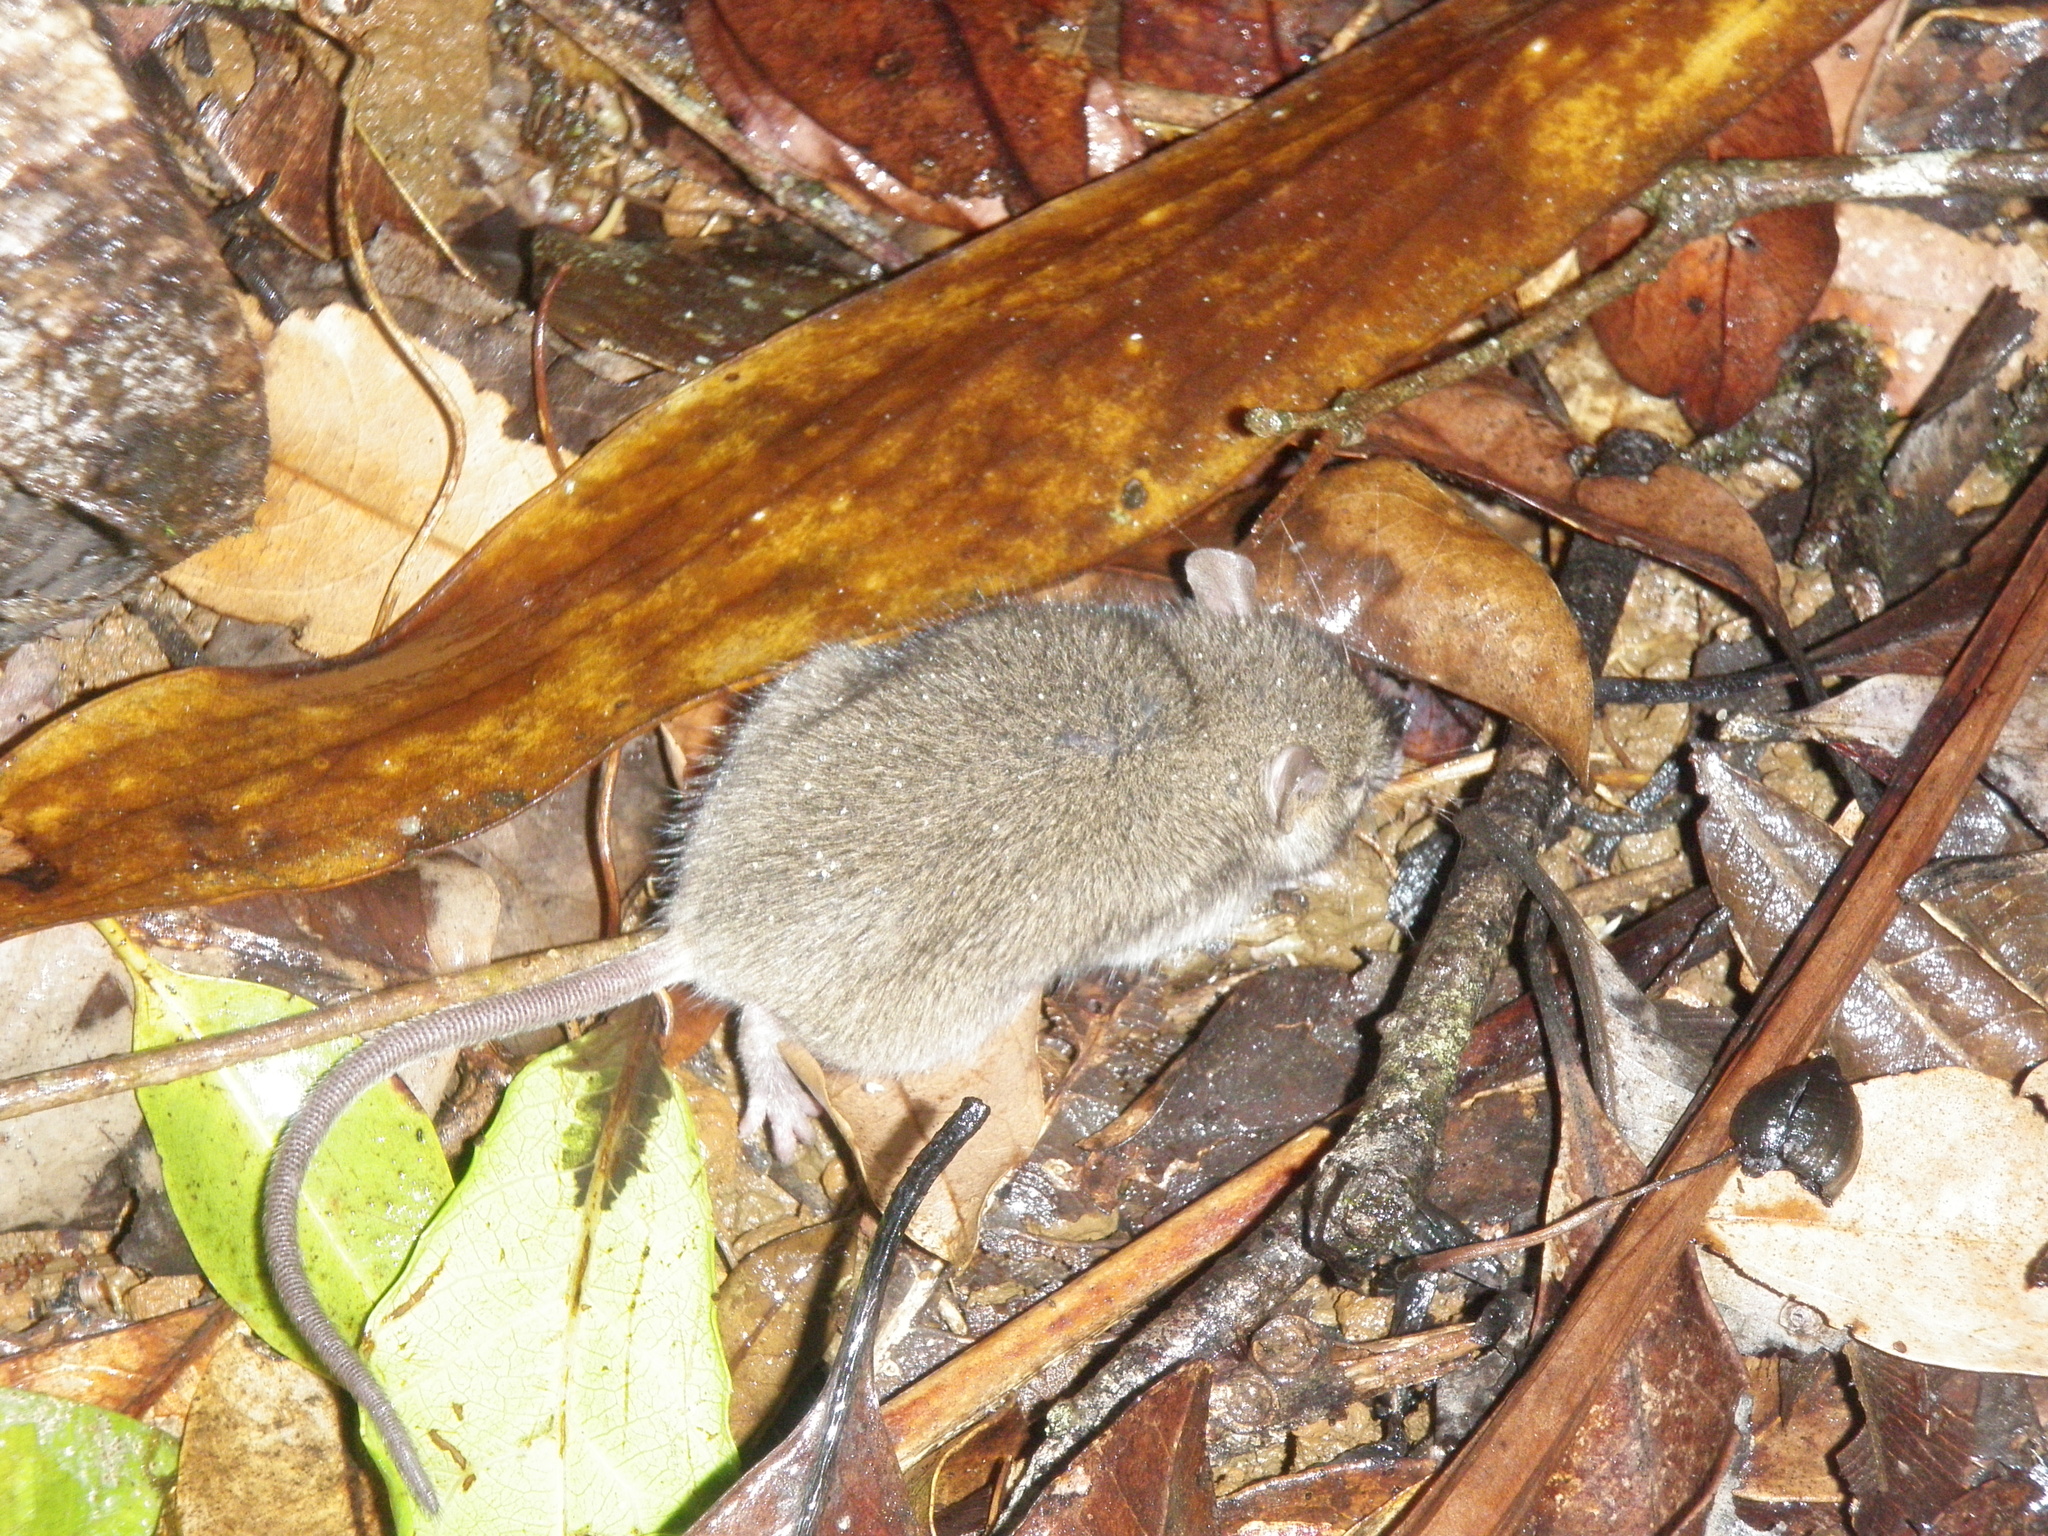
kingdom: Animalia
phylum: Chordata
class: Mammalia
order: Rodentia
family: Muridae
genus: Rattus
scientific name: Rattus fuscipes
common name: Australian bush rat
